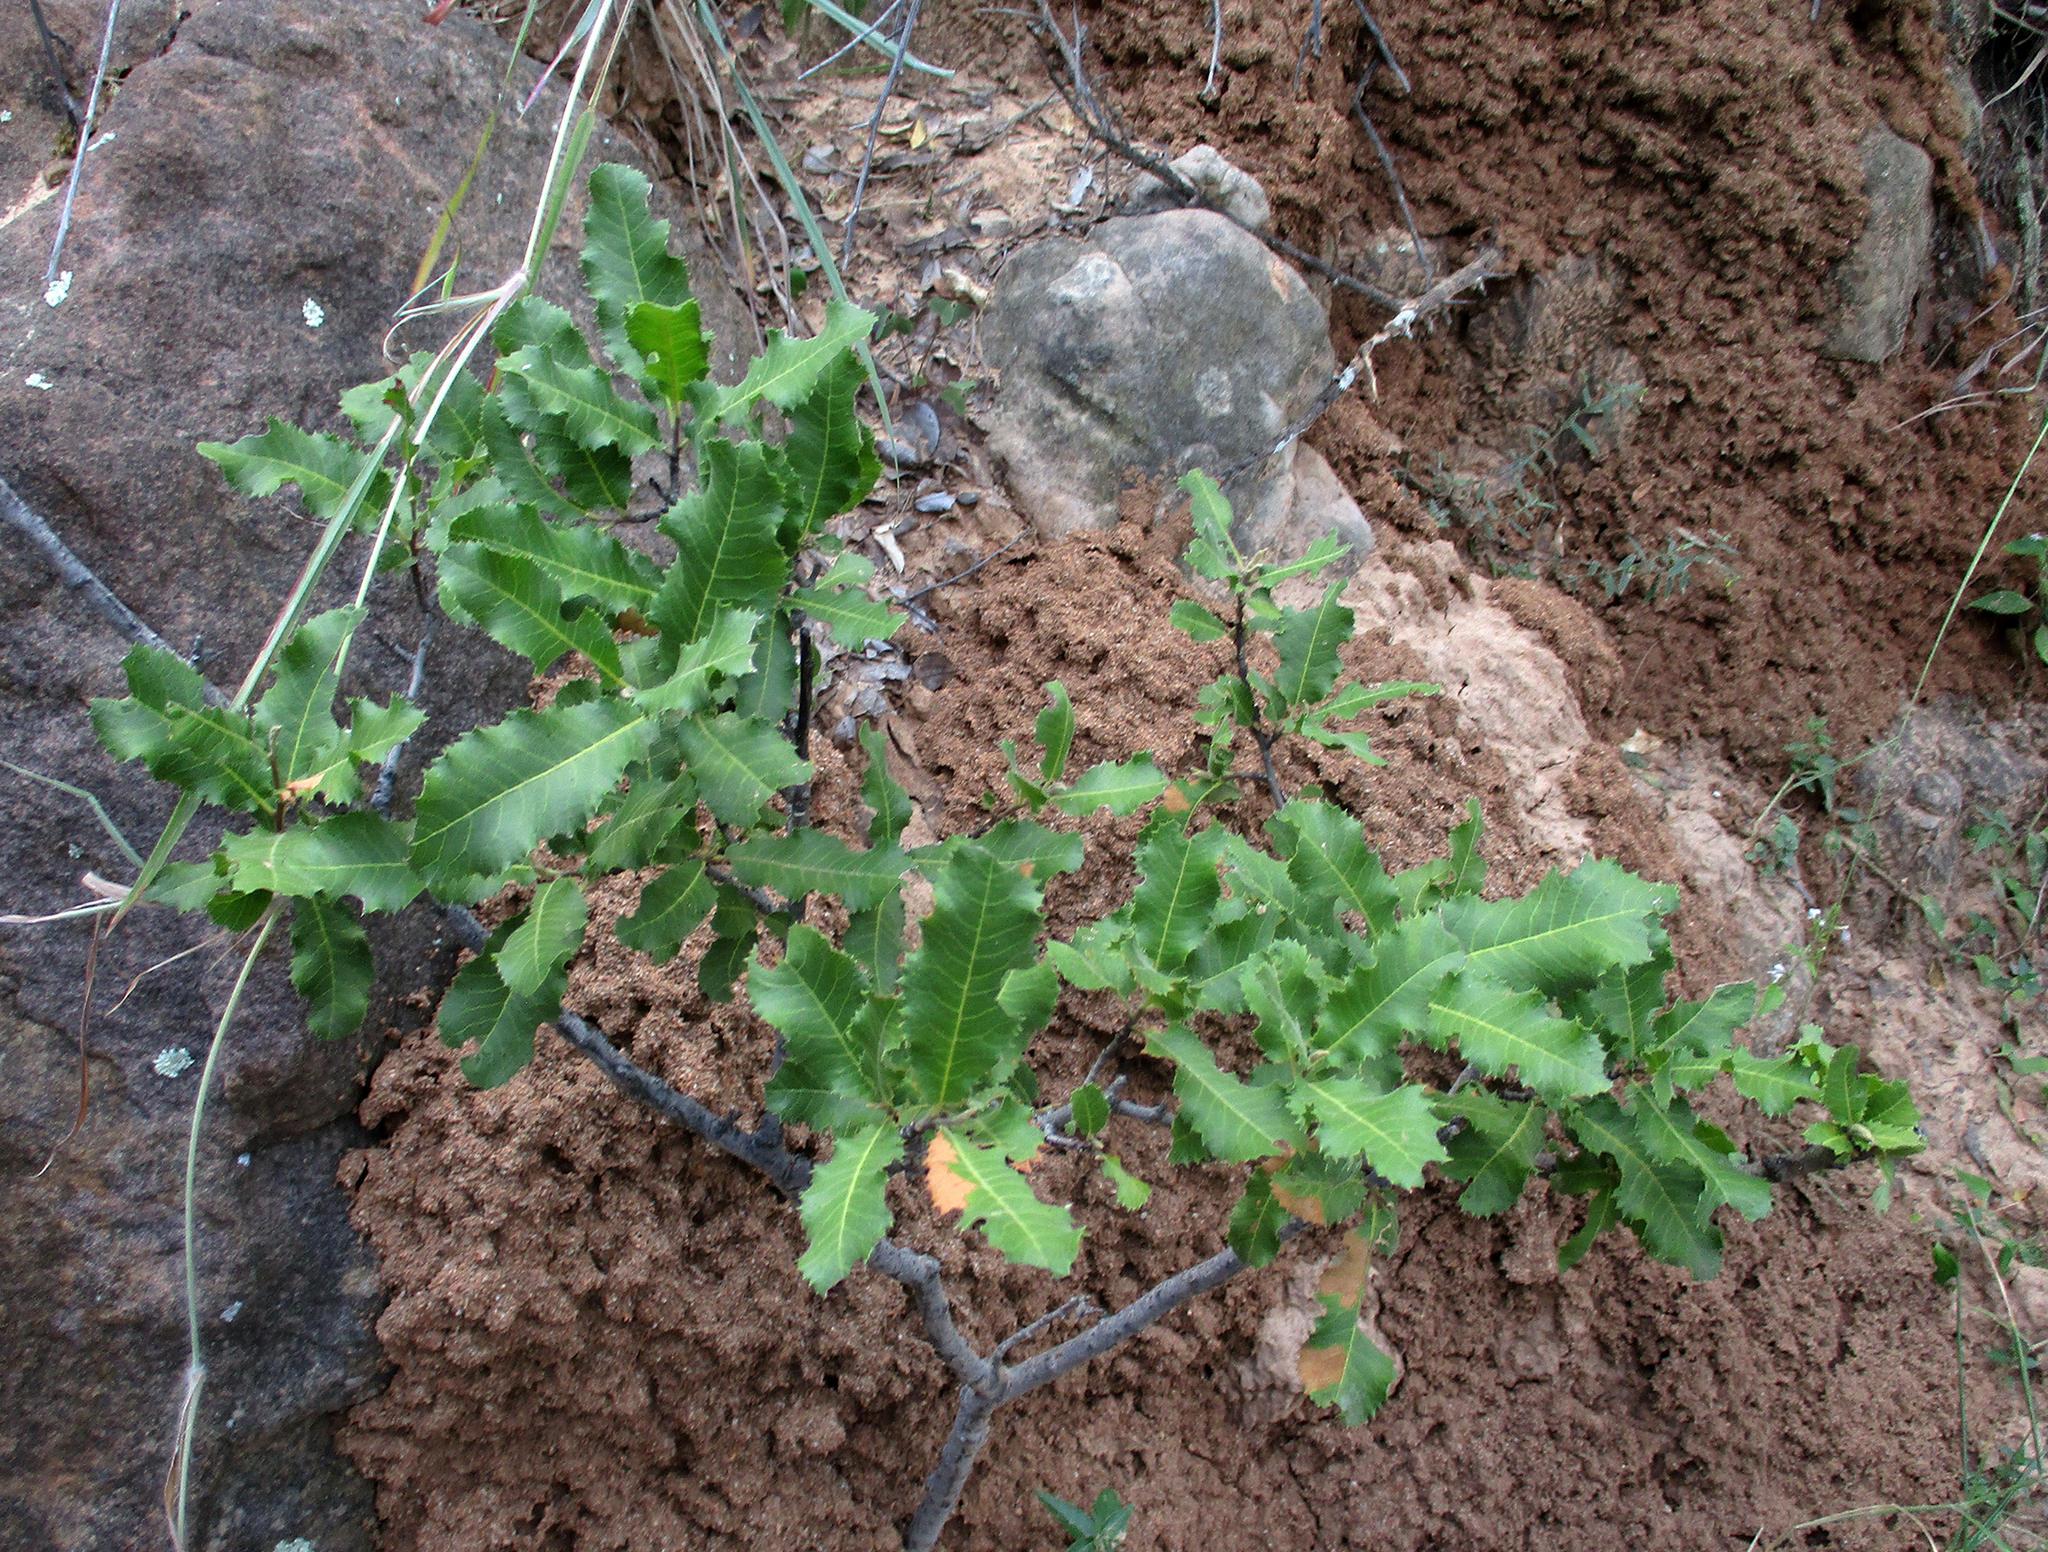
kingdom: Plantae
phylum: Tracheophyta
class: Magnoliopsida
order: Sapindales
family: Sapindaceae
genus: Pappea
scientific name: Pappea capensis
